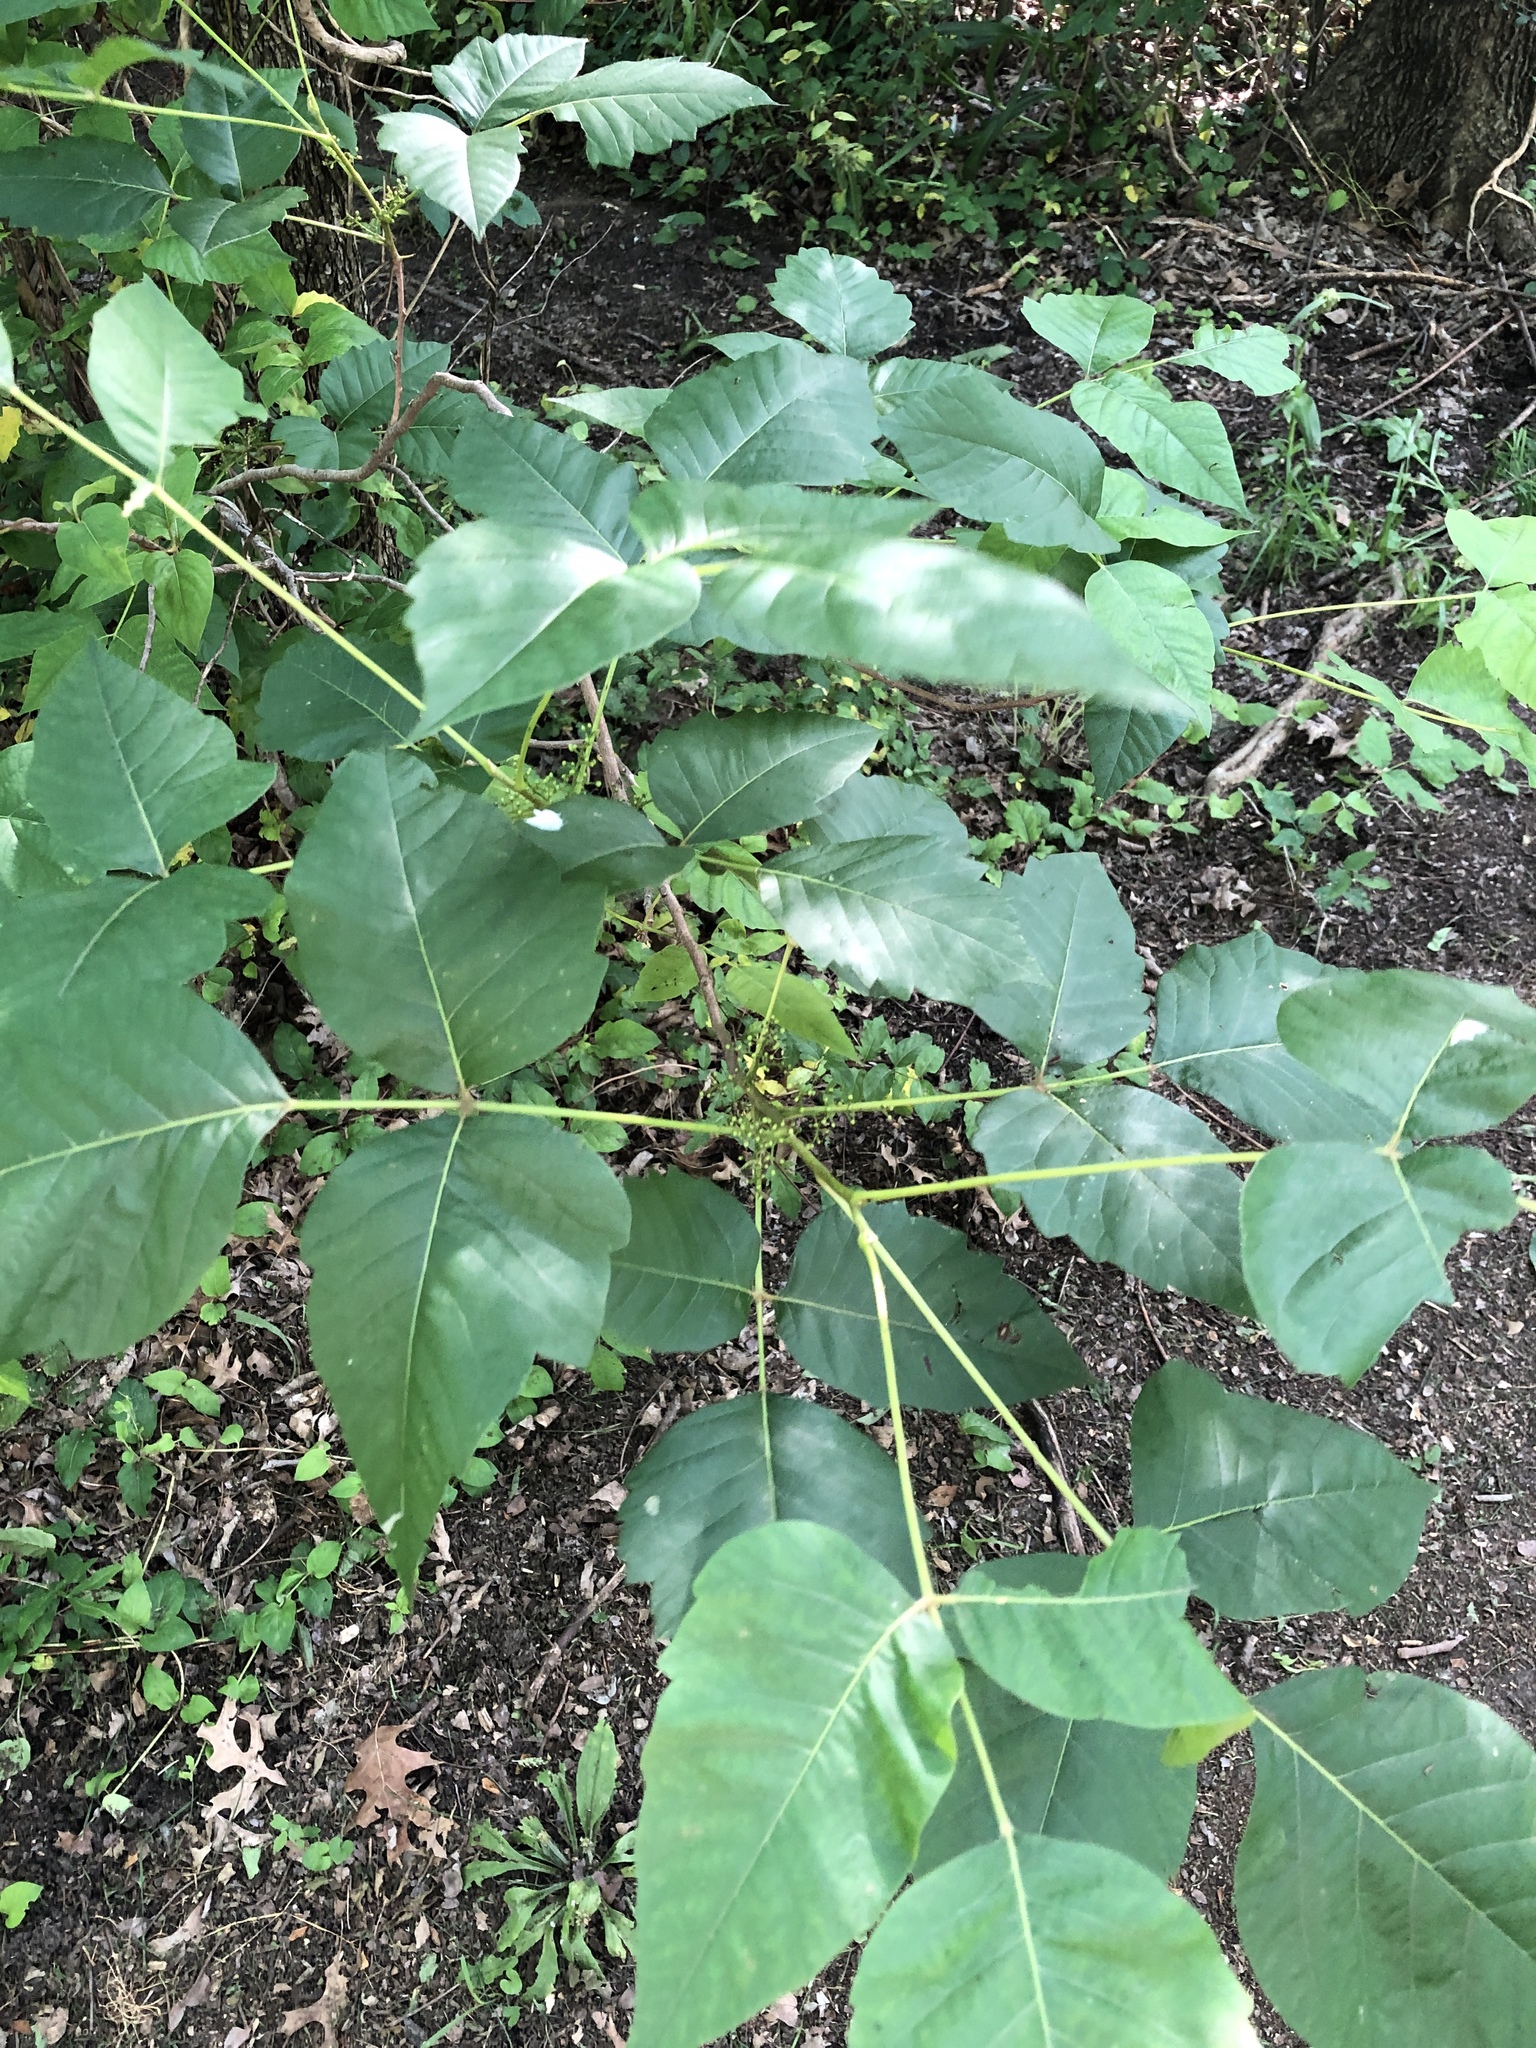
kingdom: Plantae
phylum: Tracheophyta
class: Magnoliopsida
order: Sapindales
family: Anacardiaceae
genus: Toxicodendron
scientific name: Toxicodendron radicans
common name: Poison ivy
